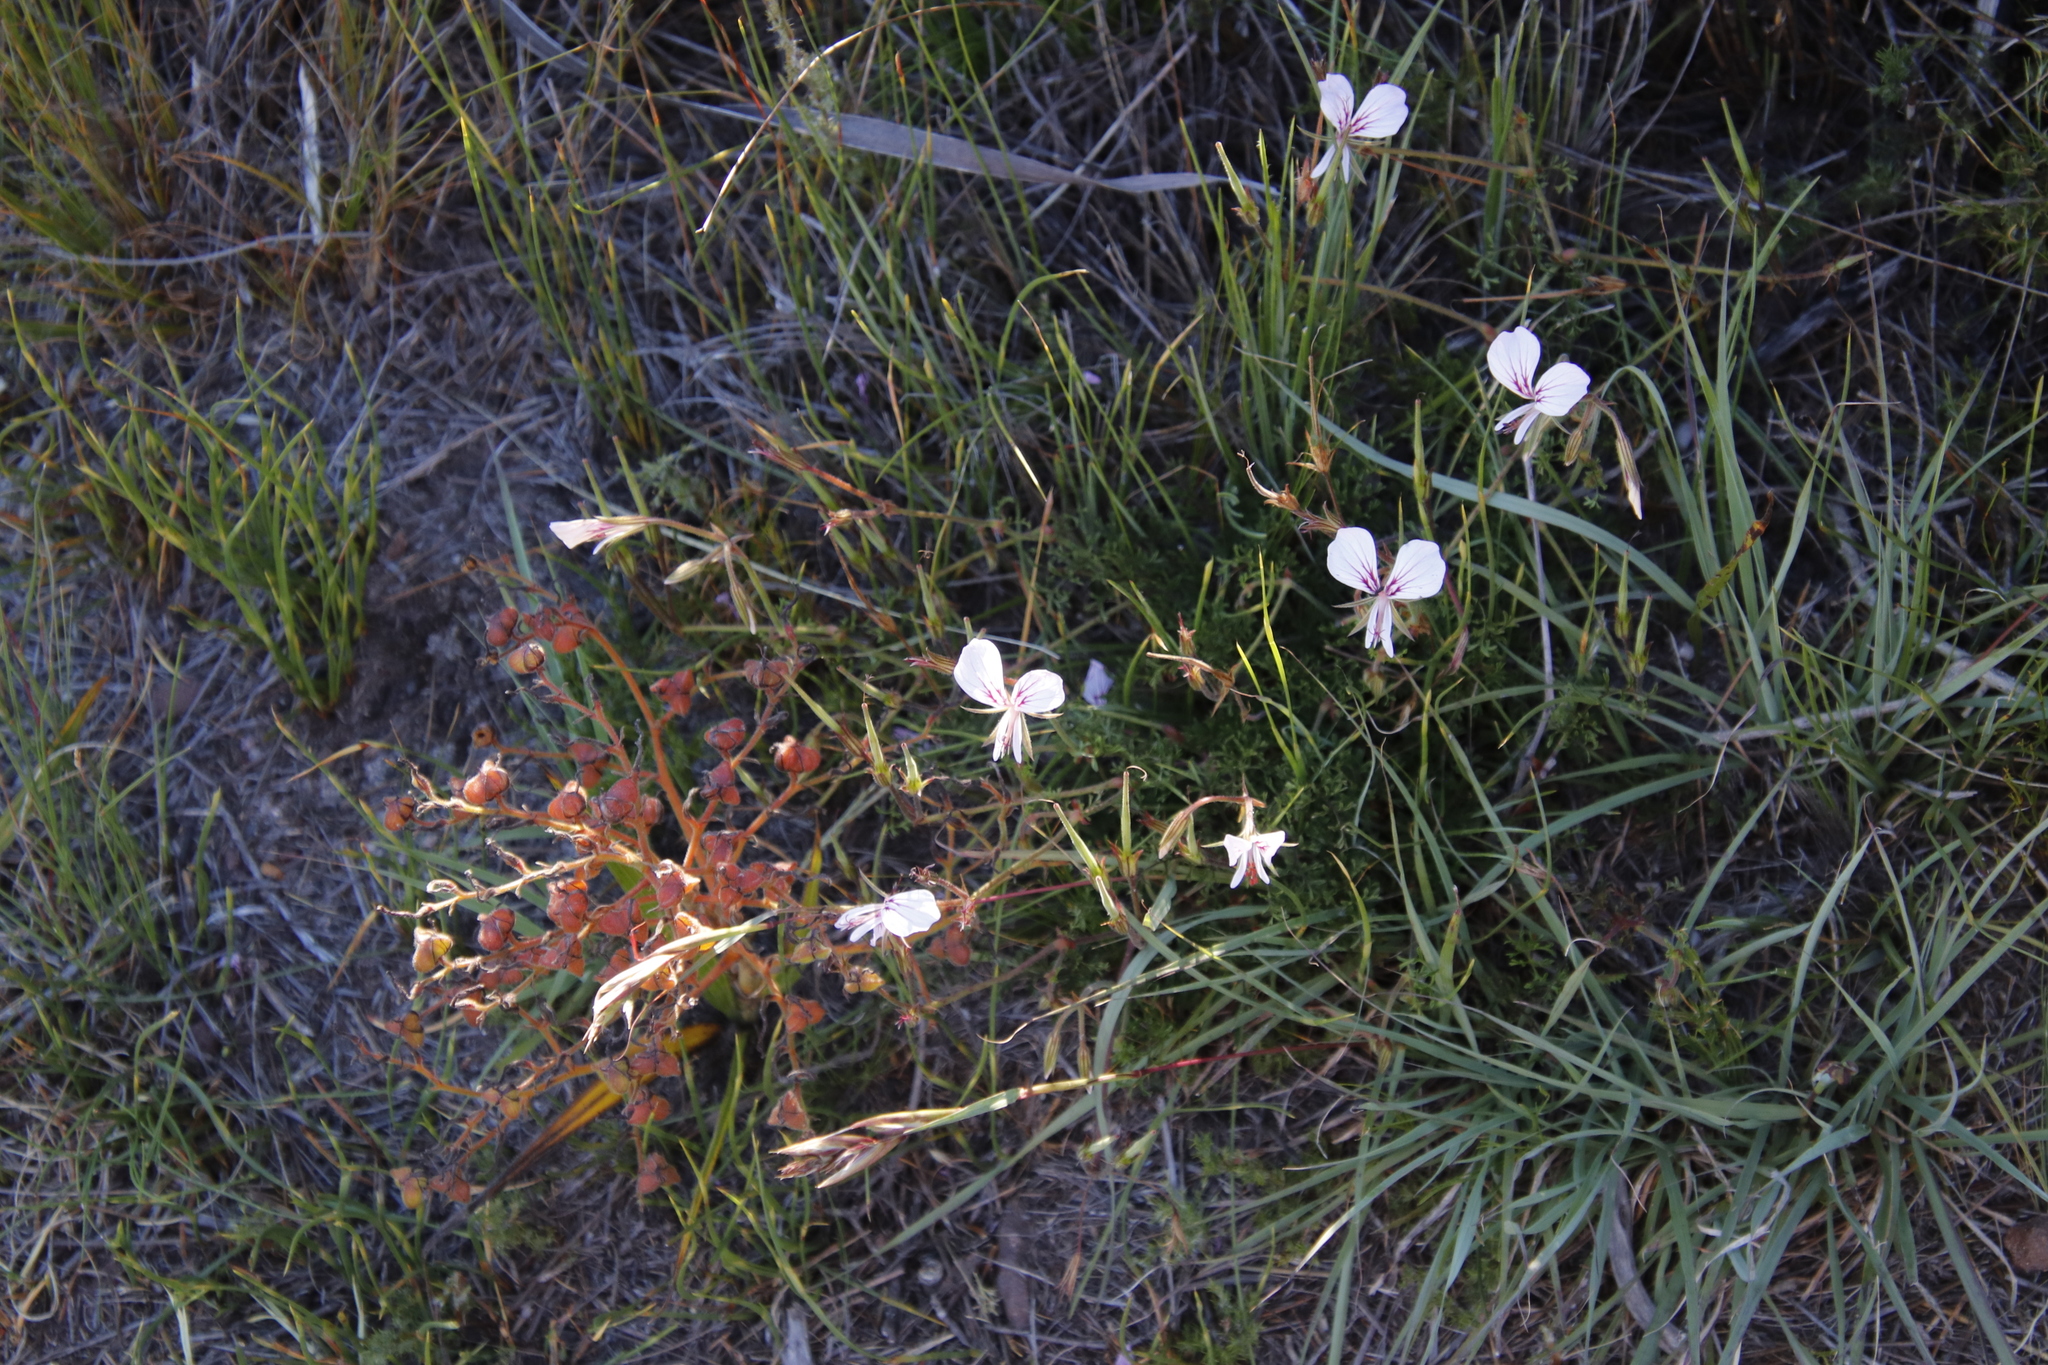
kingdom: Plantae
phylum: Tracheophyta
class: Magnoliopsida
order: Geraniales
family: Geraniaceae
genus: Pelargonium
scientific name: Pelargonium longicaule
